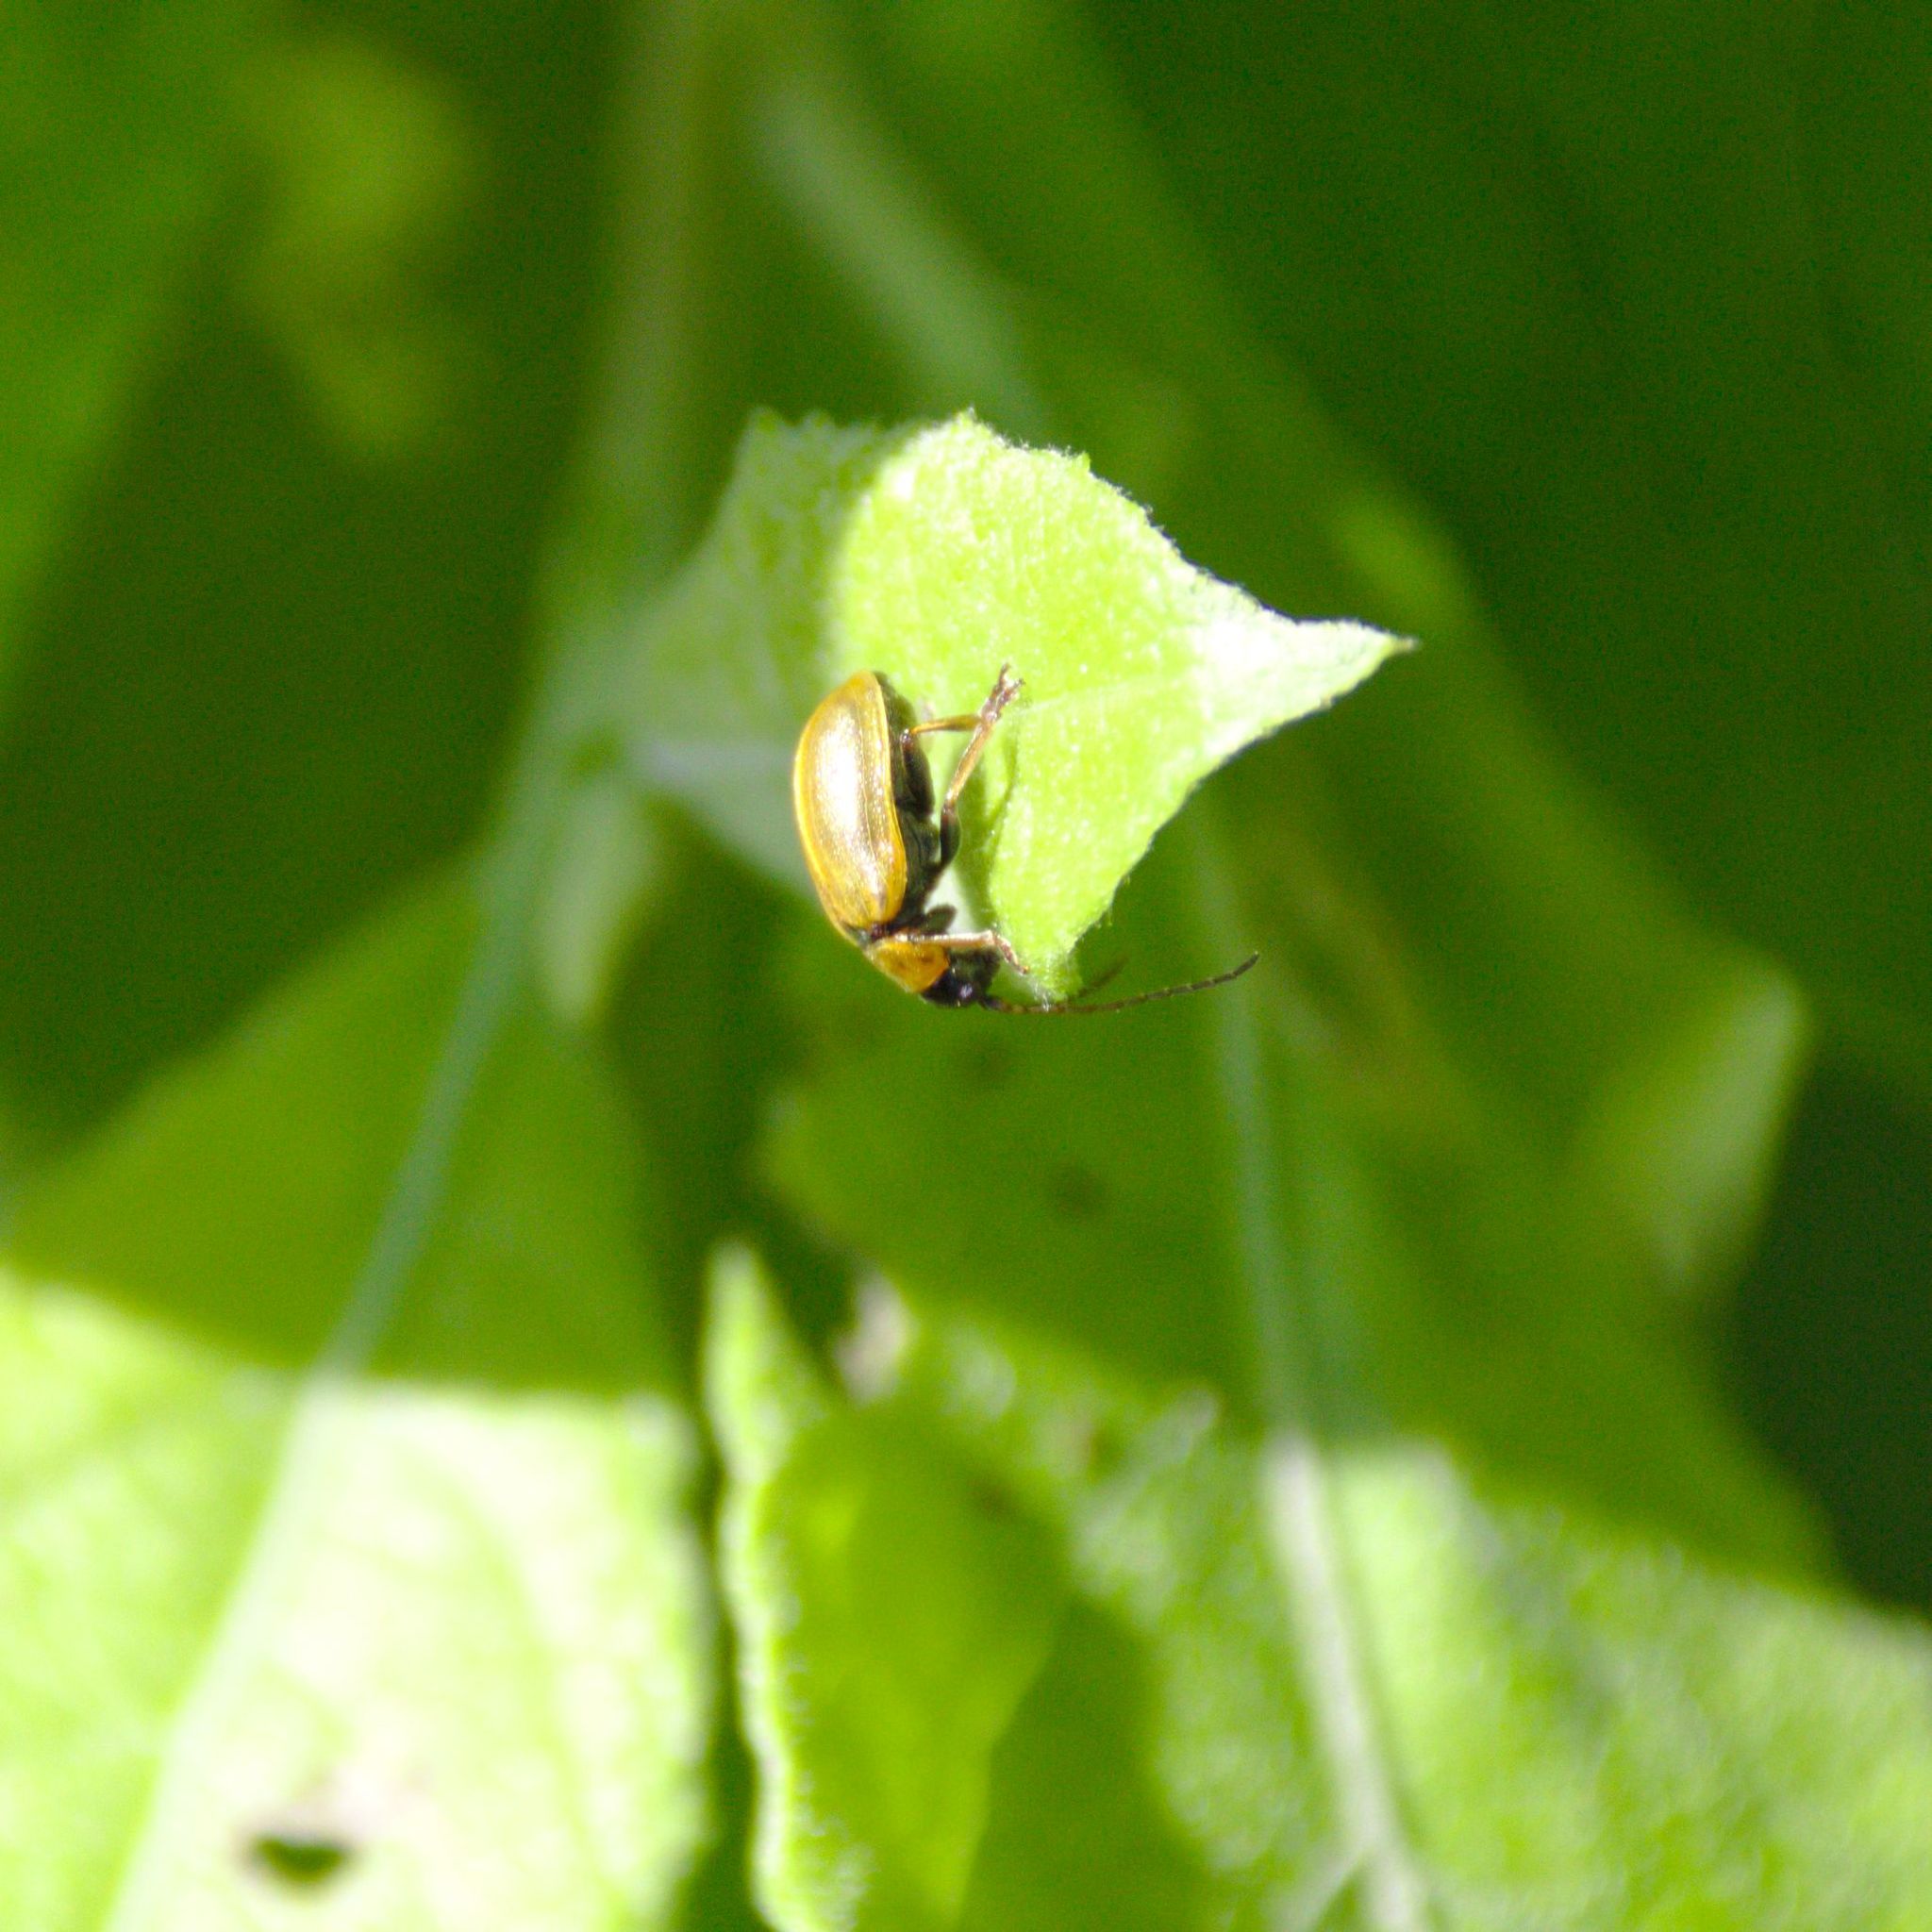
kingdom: Animalia
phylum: Arthropoda
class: Insecta
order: Coleoptera
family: Chrysomelidae
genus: Lochmaea
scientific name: Lochmaea caprea
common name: Willow leaf beetle
